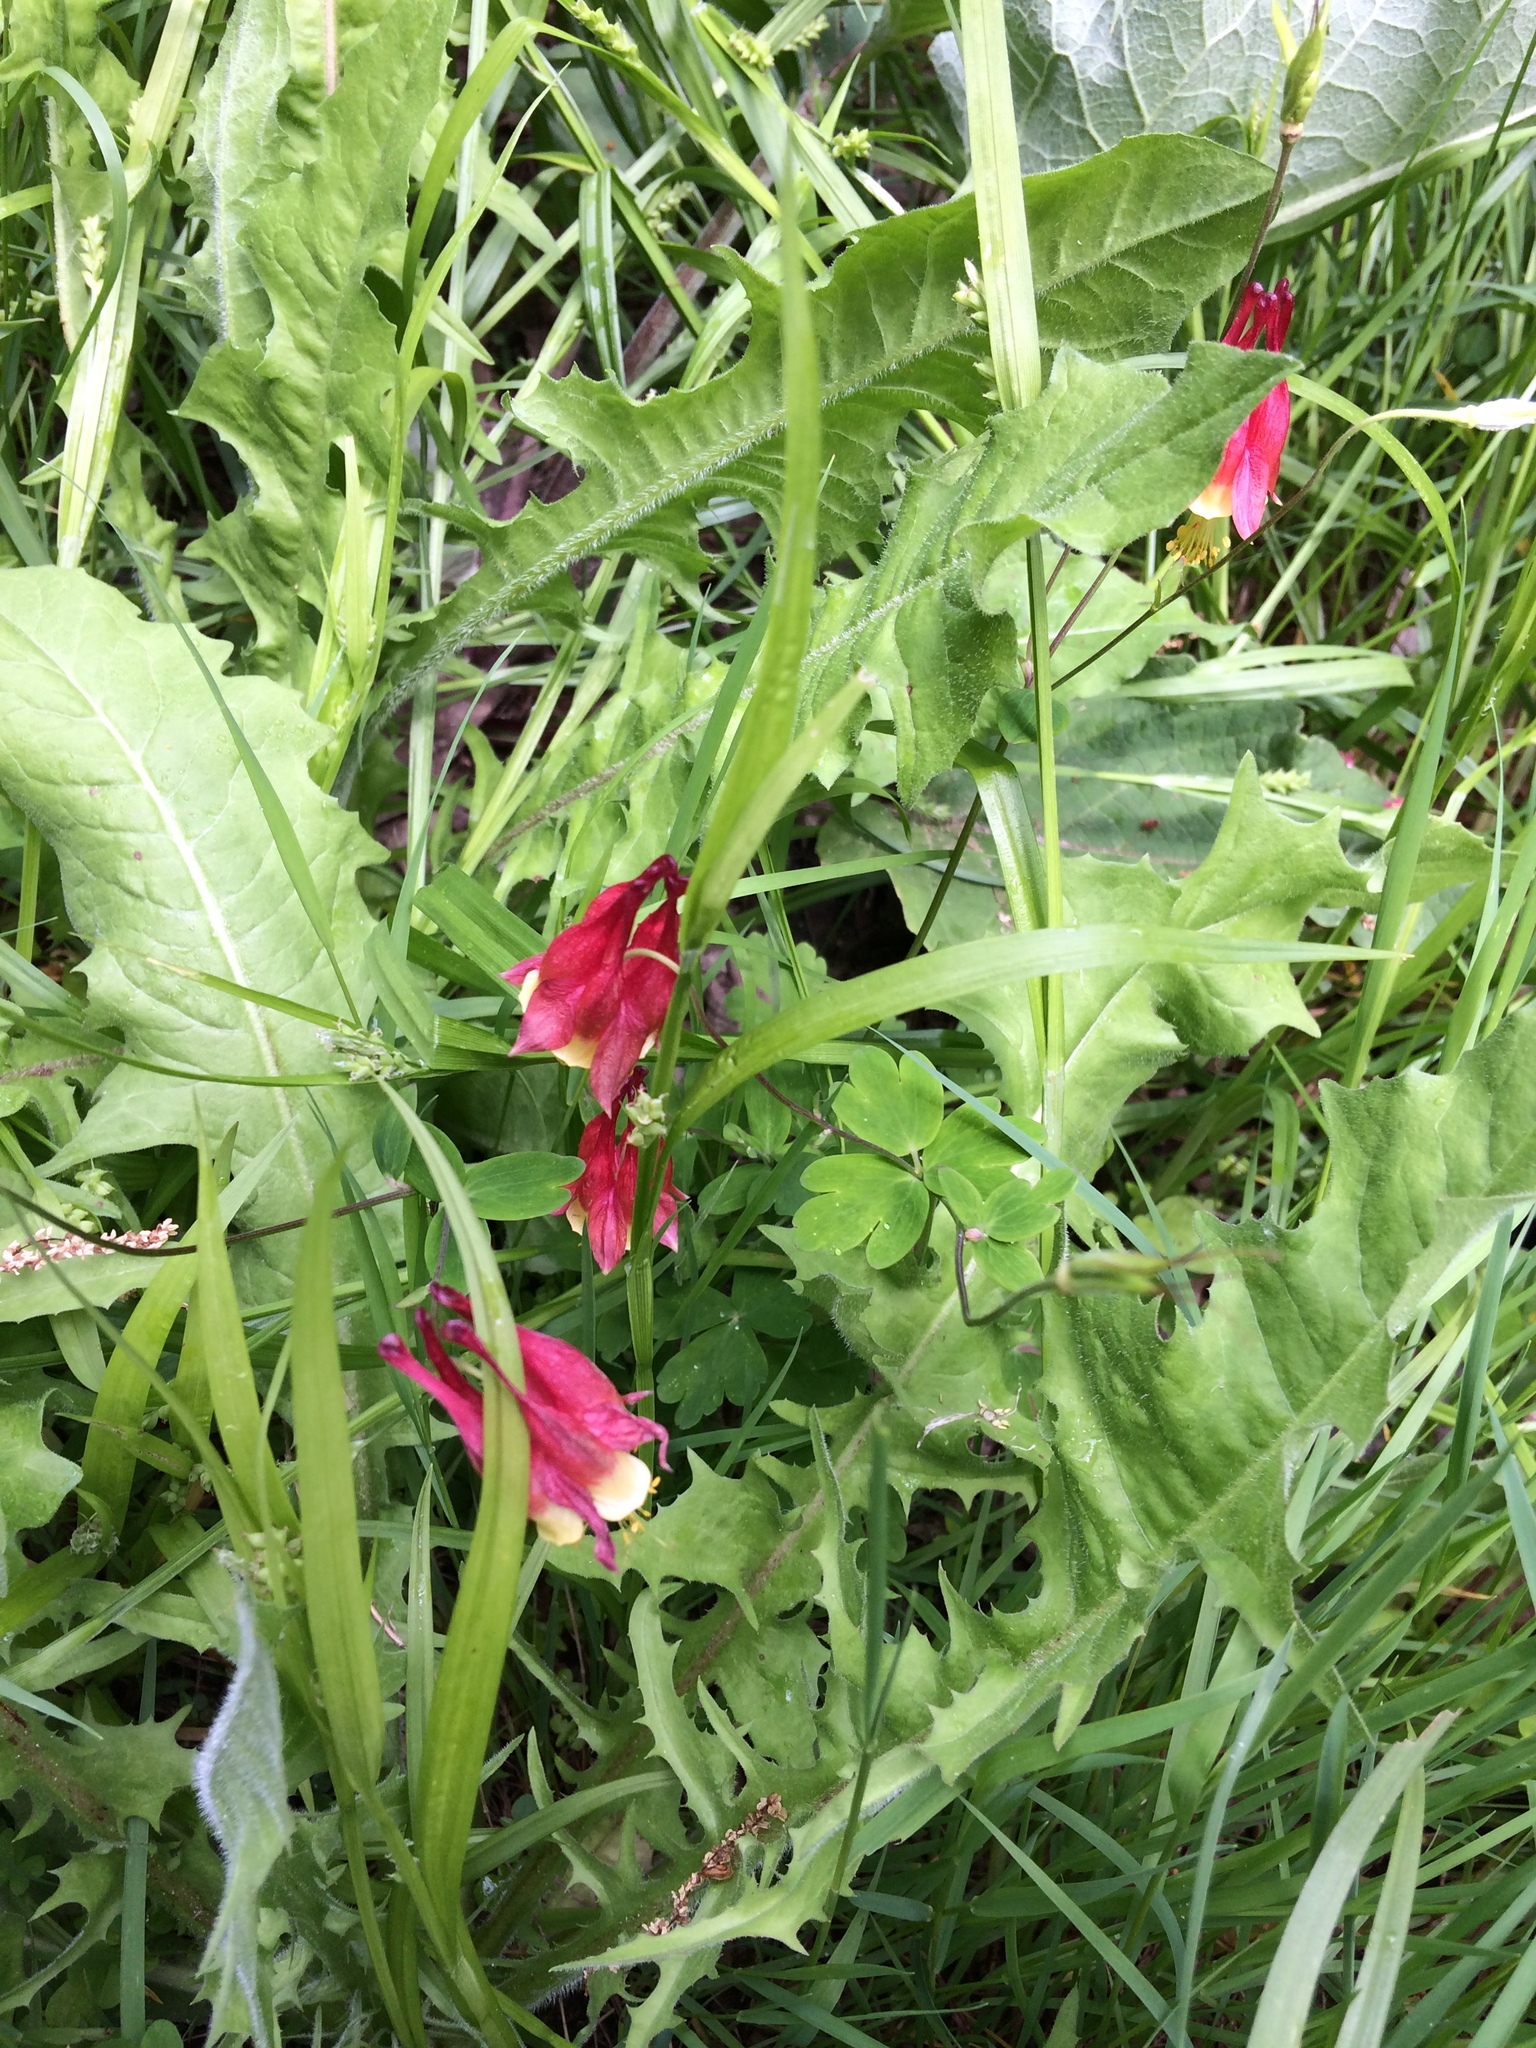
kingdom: Plantae
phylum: Tracheophyta
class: Magnoliopsida
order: Ranunculales
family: Ranunculaceae
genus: Aquilegia
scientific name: Aquilegia canadensis
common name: American columbine
